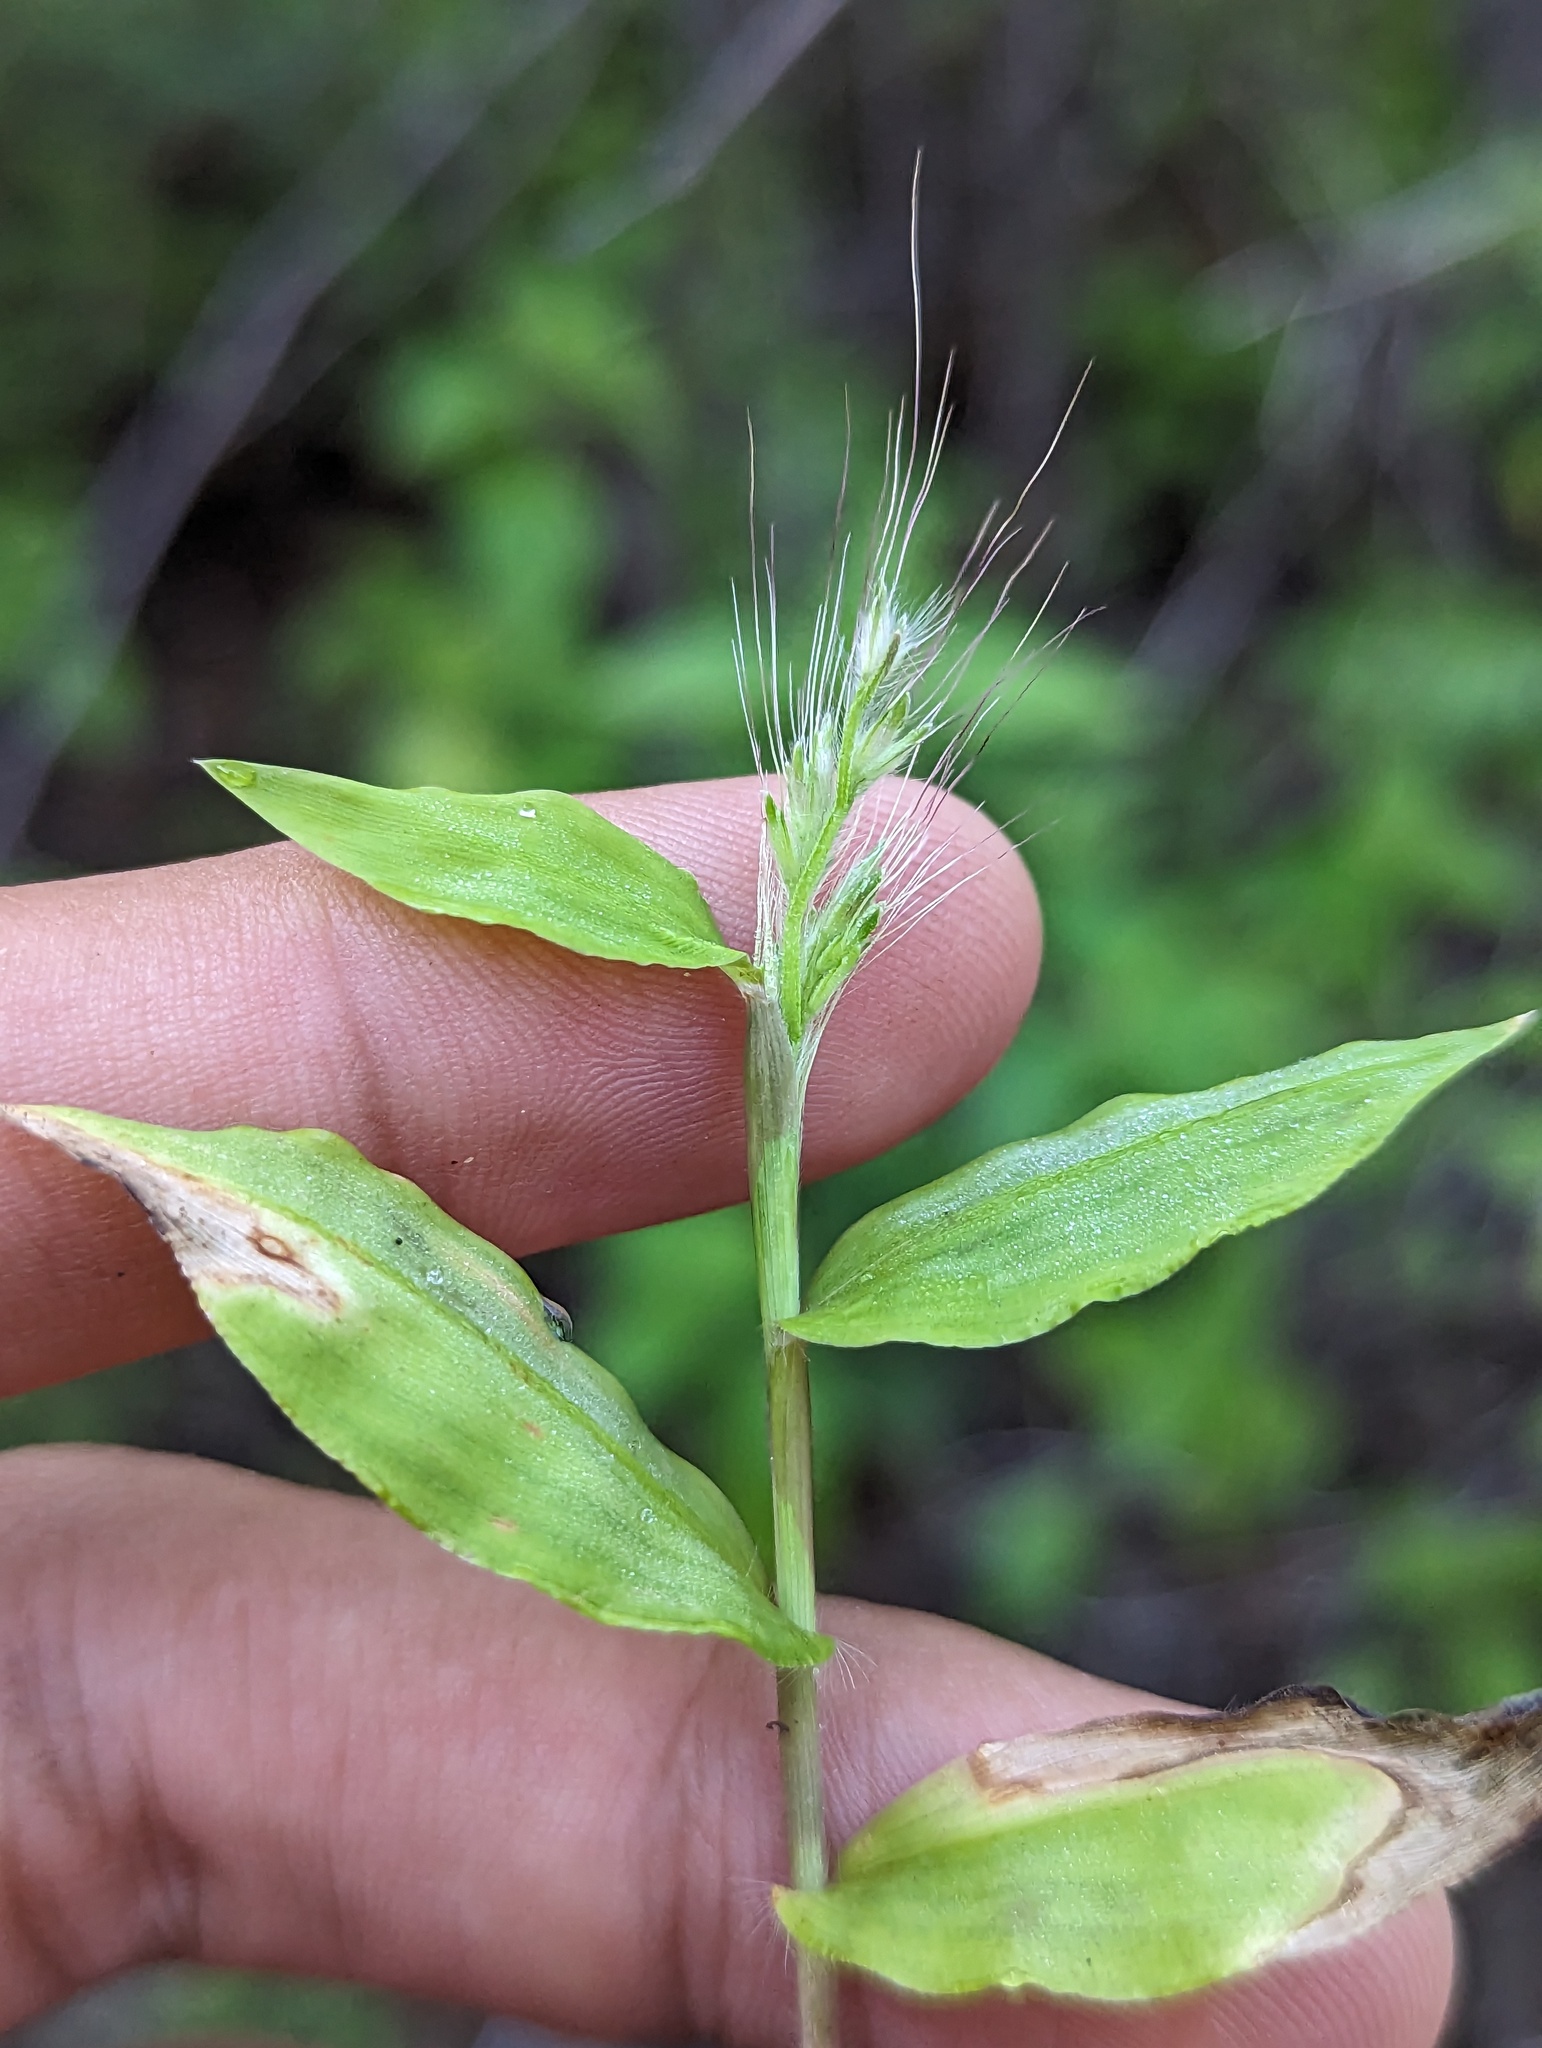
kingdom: Plantae
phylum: Tracheophyta
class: Liliopsida
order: Poales
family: Poaceae
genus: Oplismenus
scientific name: Oplismenus burmanni
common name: Burmann's basketgrass
